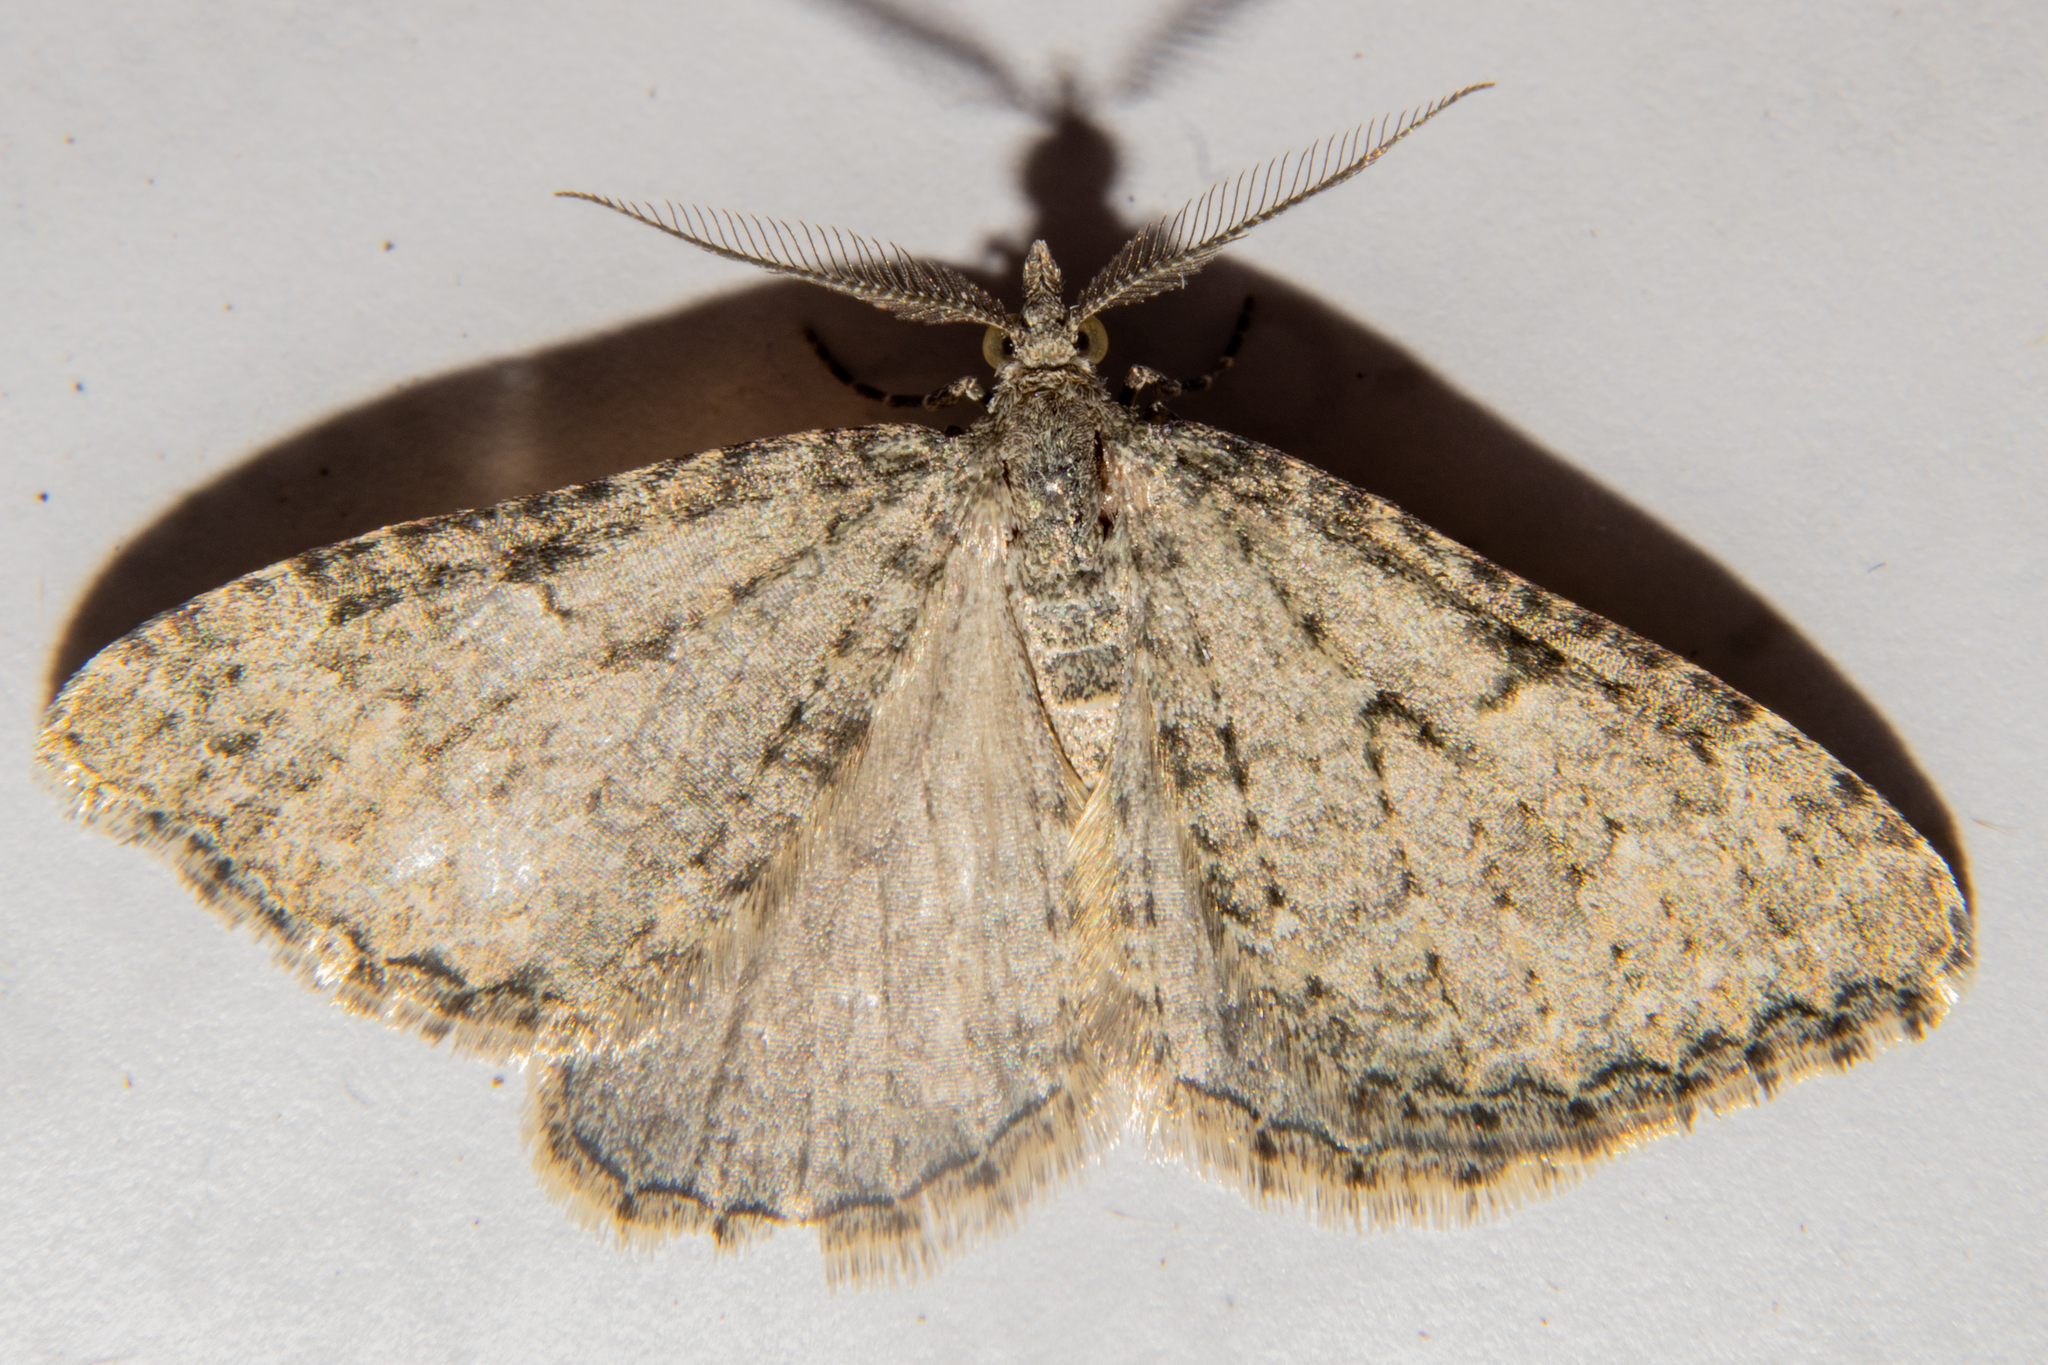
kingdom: Animalia
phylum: Arthropoda
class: Insecta
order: Lepidoptera
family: Geometridae
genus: Helastia
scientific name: Helastia corcularia
